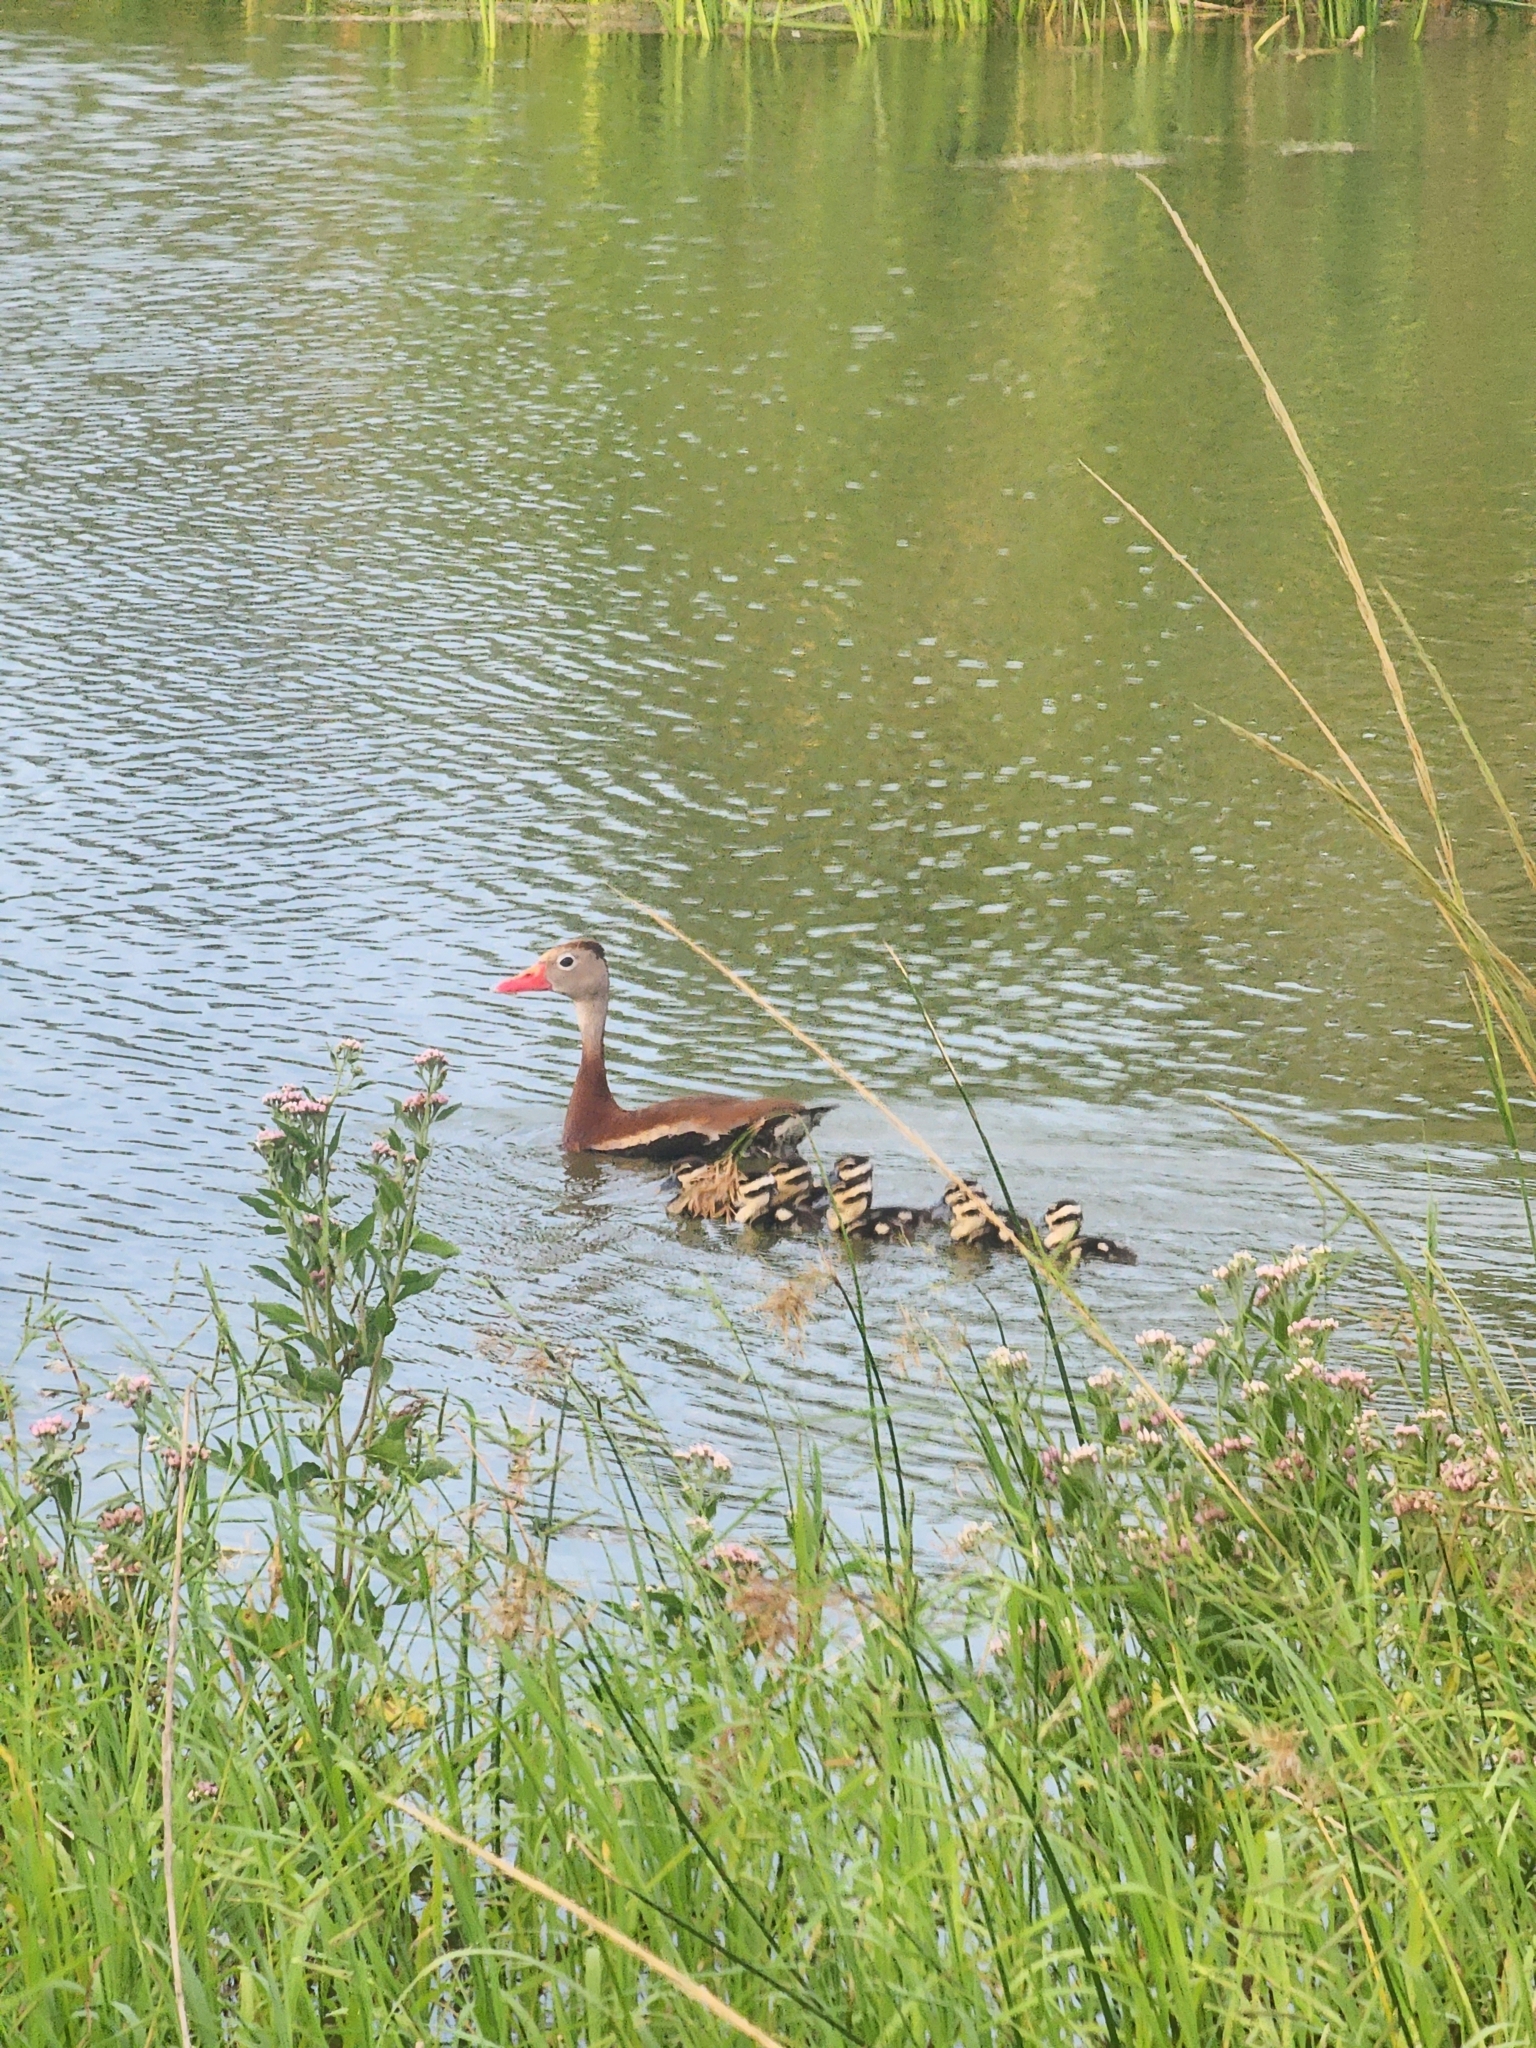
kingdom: Animalia
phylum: Chordata
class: Aves
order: Anseriformes
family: Anatidae
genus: Dendrocygna
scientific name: Dendrocygna autumnalis
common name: Black-bellied whistling duck
